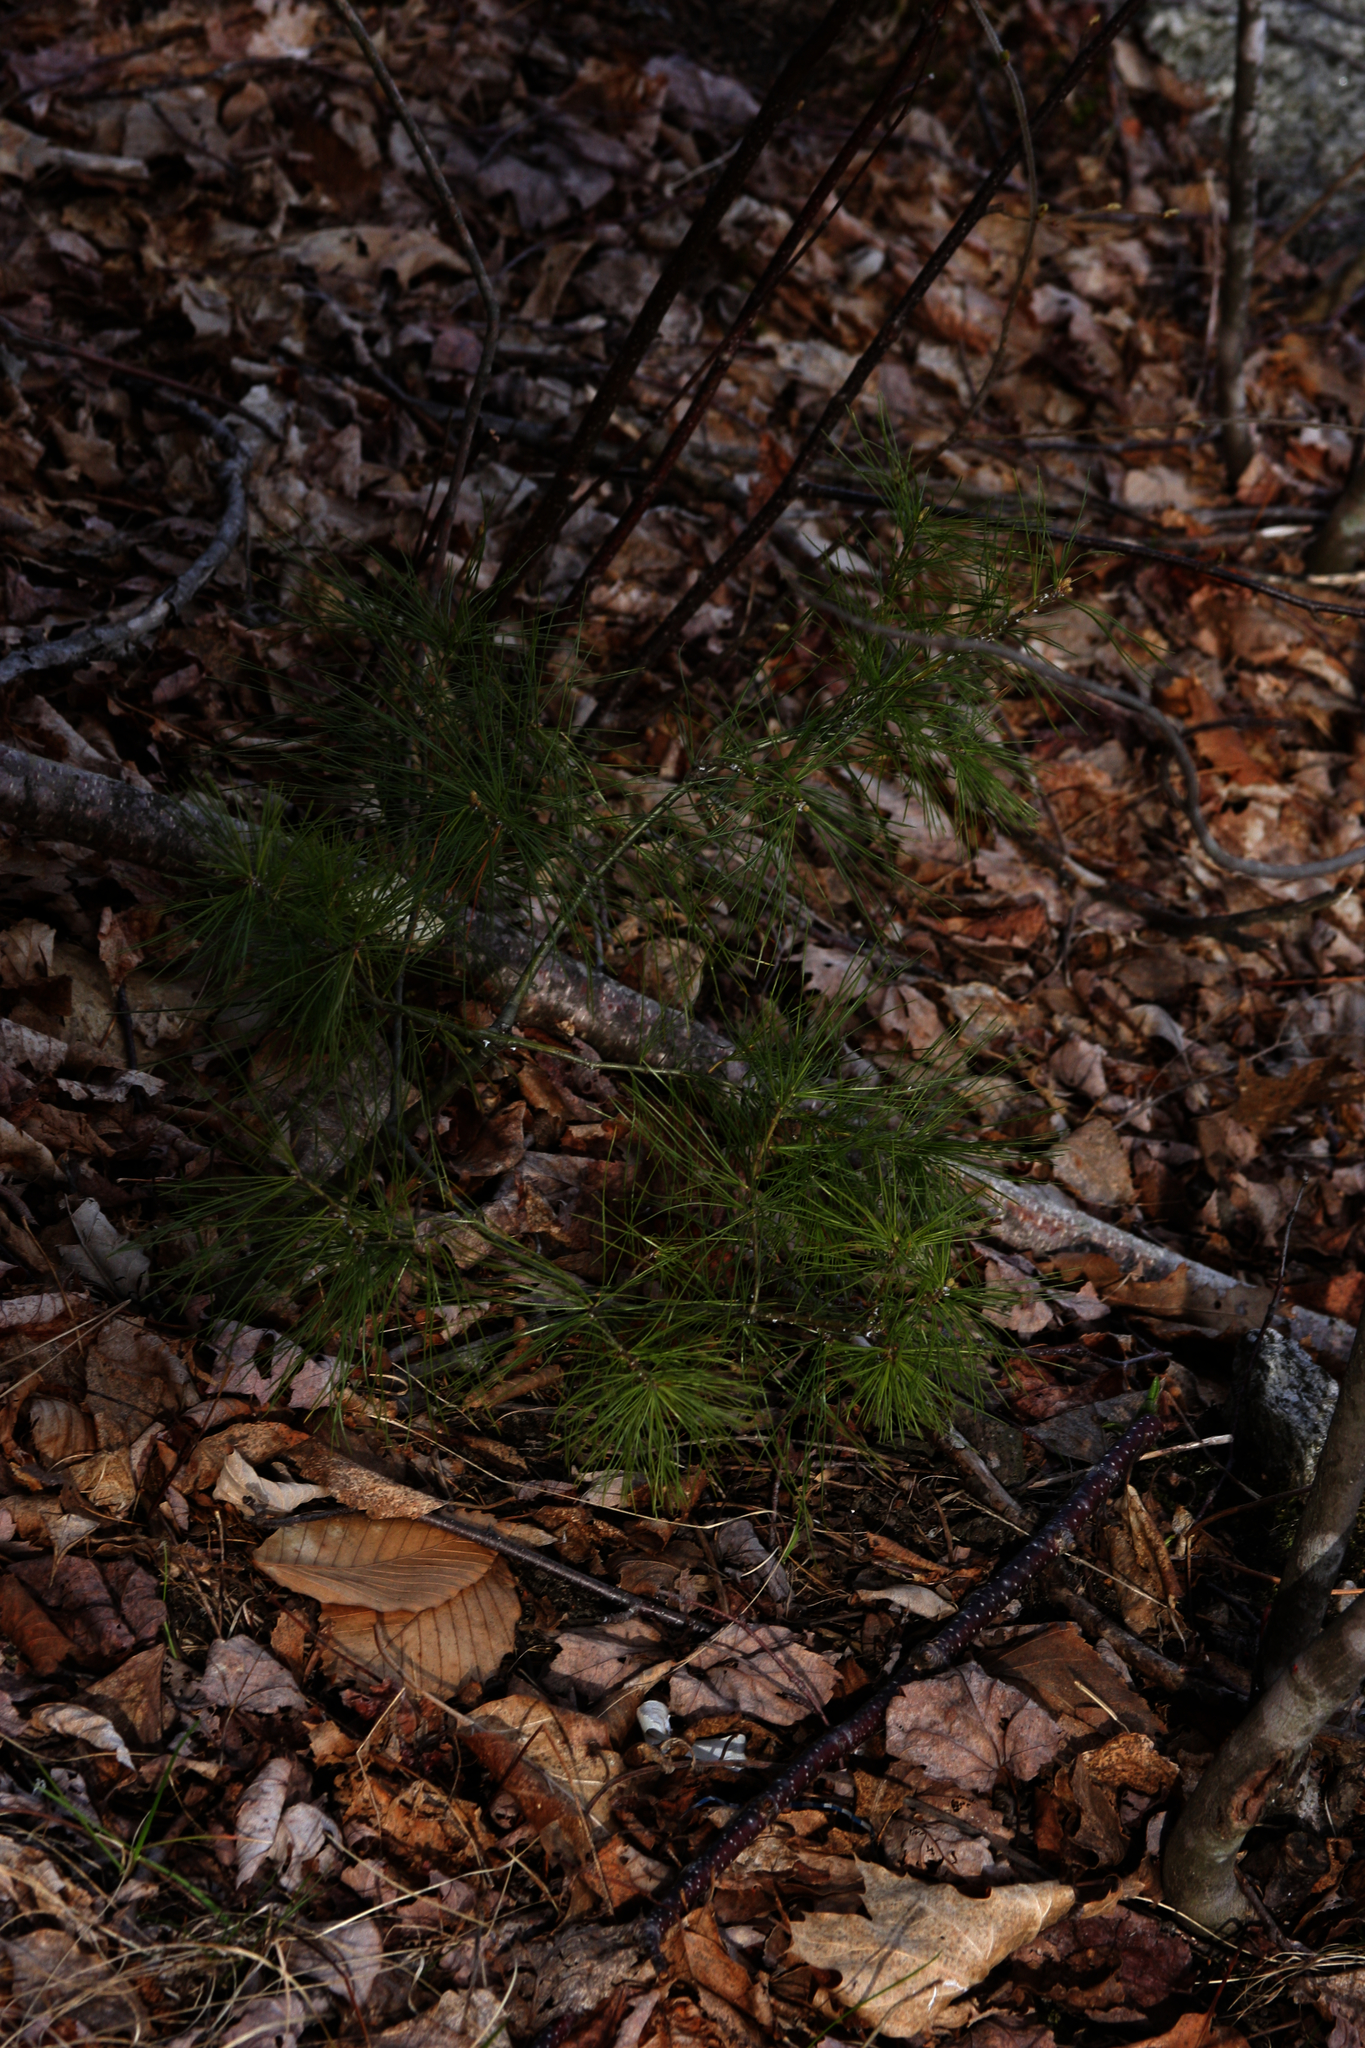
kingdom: Plantae
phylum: Tracheophyta
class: Pinopsida
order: Pinales
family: Pinaceae
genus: Pinus
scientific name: Pinus strobus
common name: Weymouth pine
